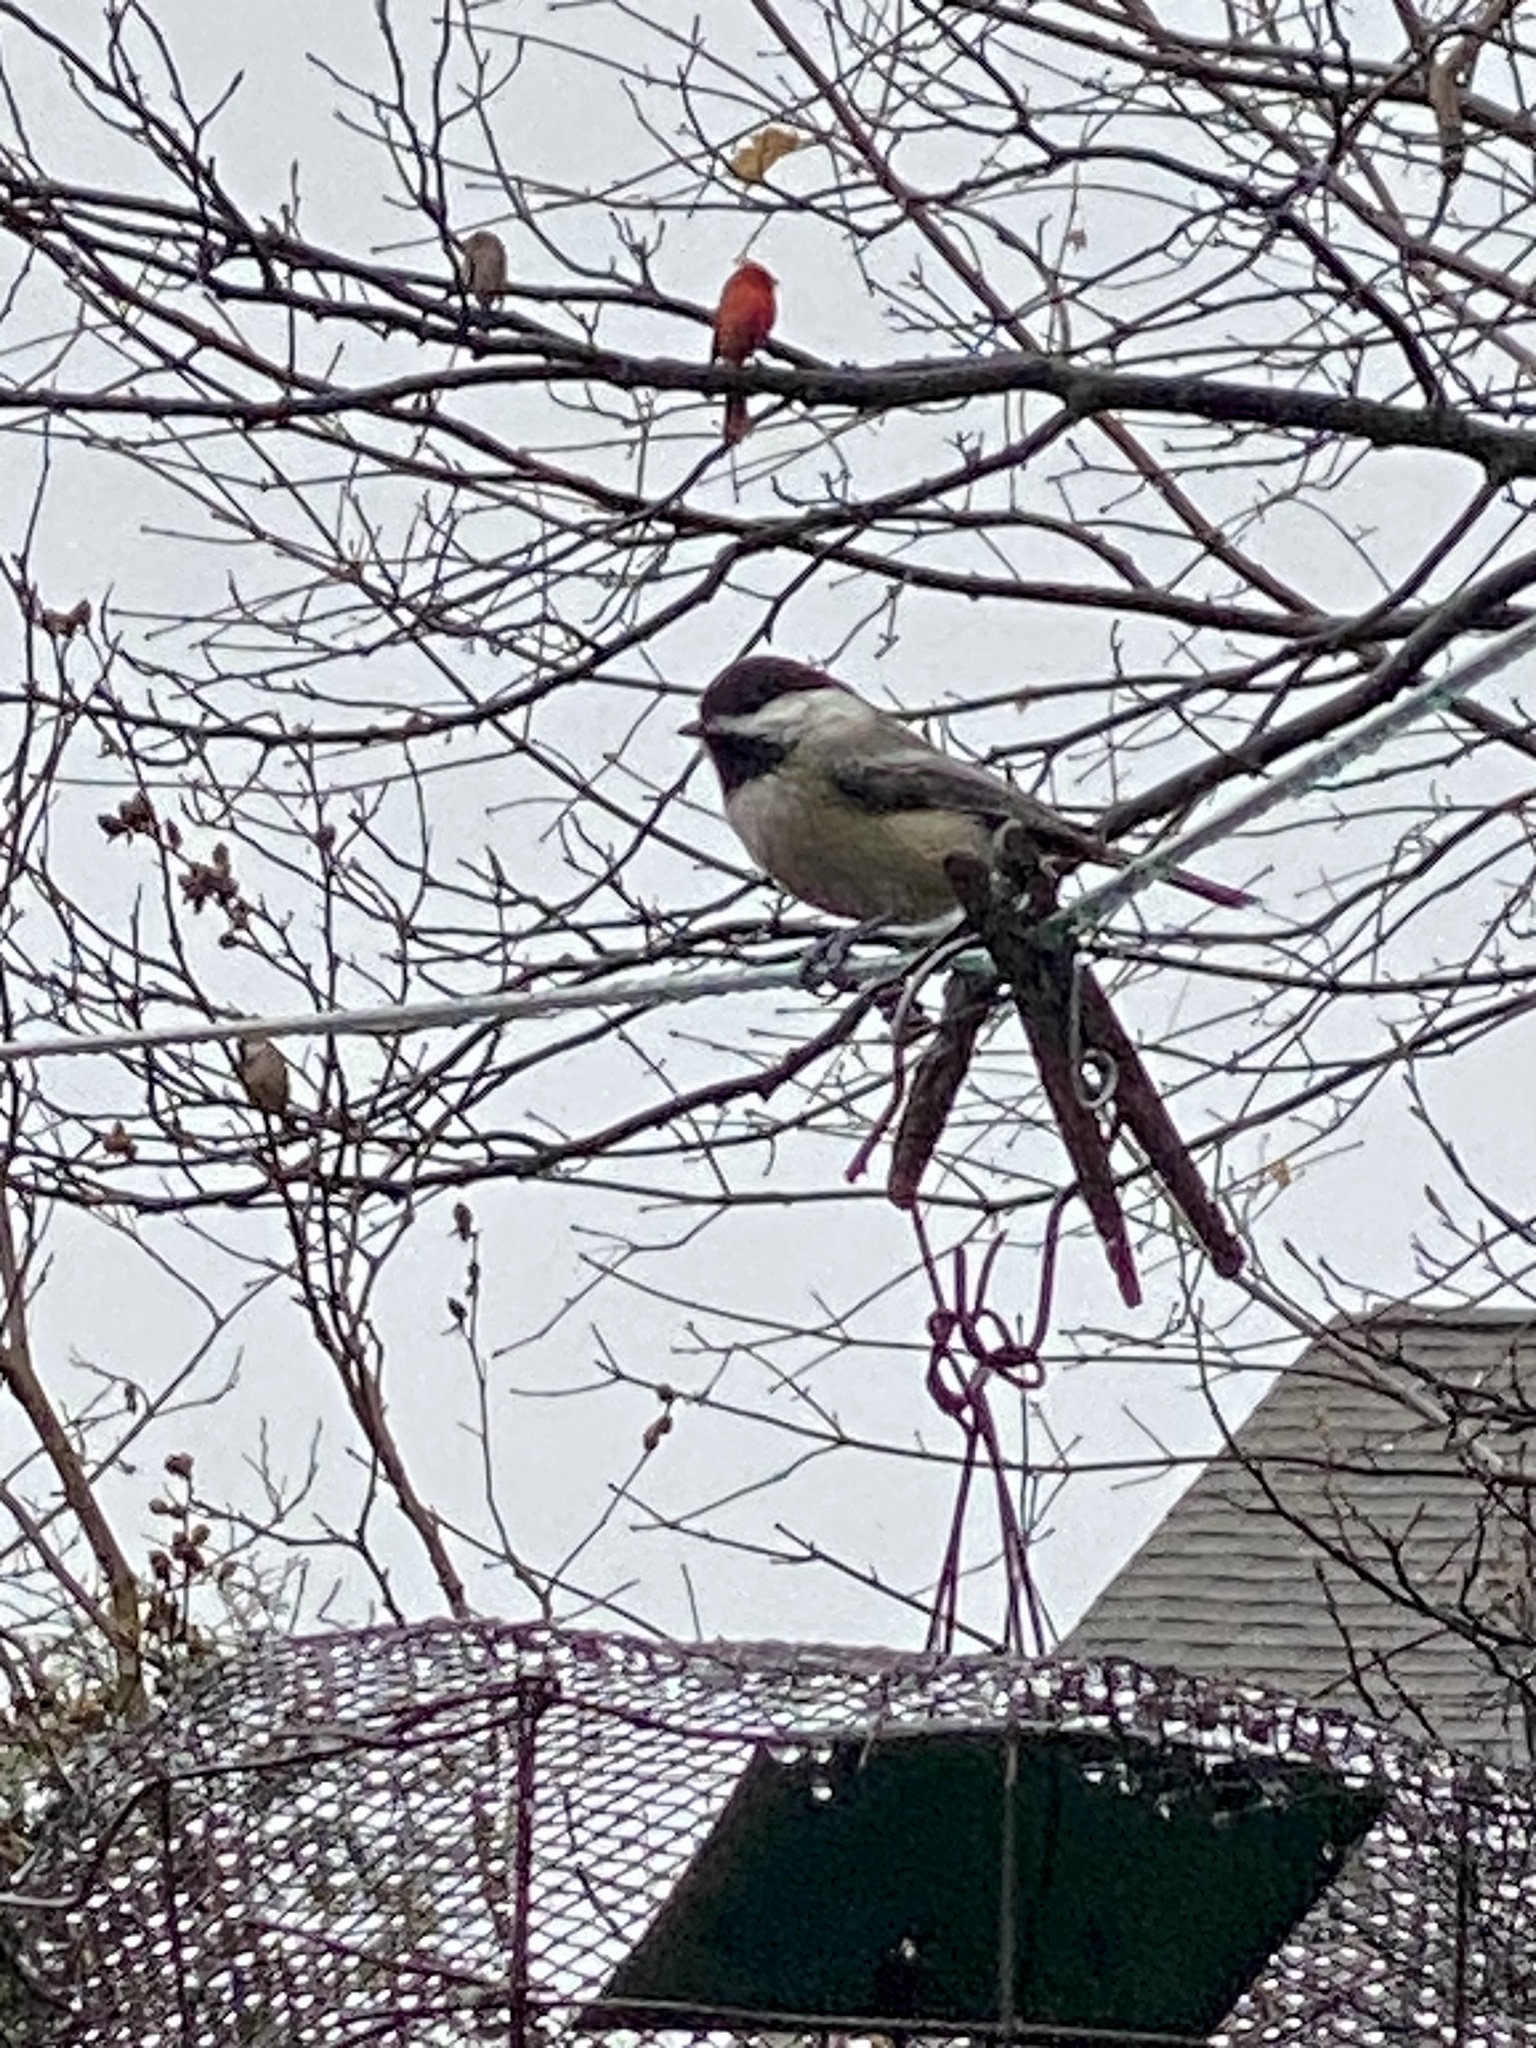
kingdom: Animalia
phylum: Chordata
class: Aves
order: Passeriformes
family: Paridae
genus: Poecile
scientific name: Poecile atricapillus
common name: Black-capped chickadee
